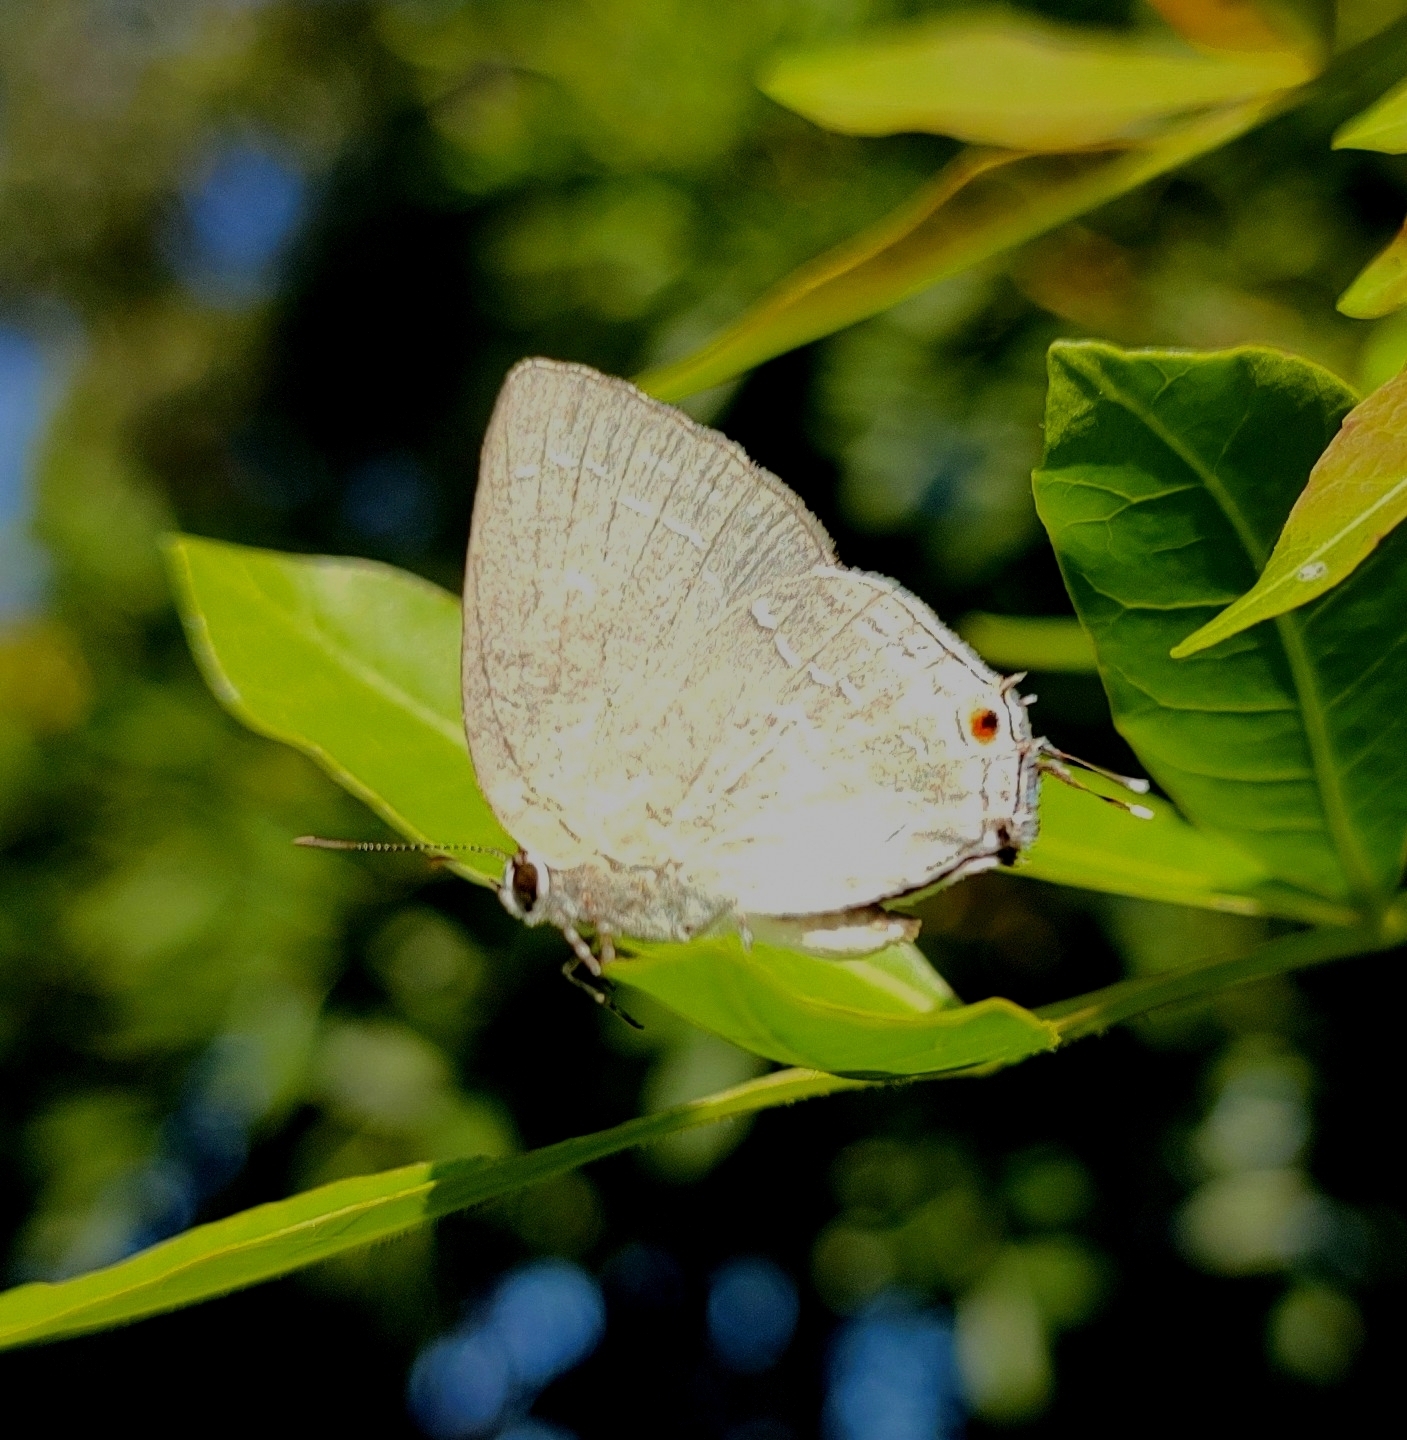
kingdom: Animalia
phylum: Arthropoda
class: Insecta
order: Lepidoptera
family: Lycaenidae
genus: Strephonota
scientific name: Strephonota tephraeus
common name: Pearly-gray hairstreak
